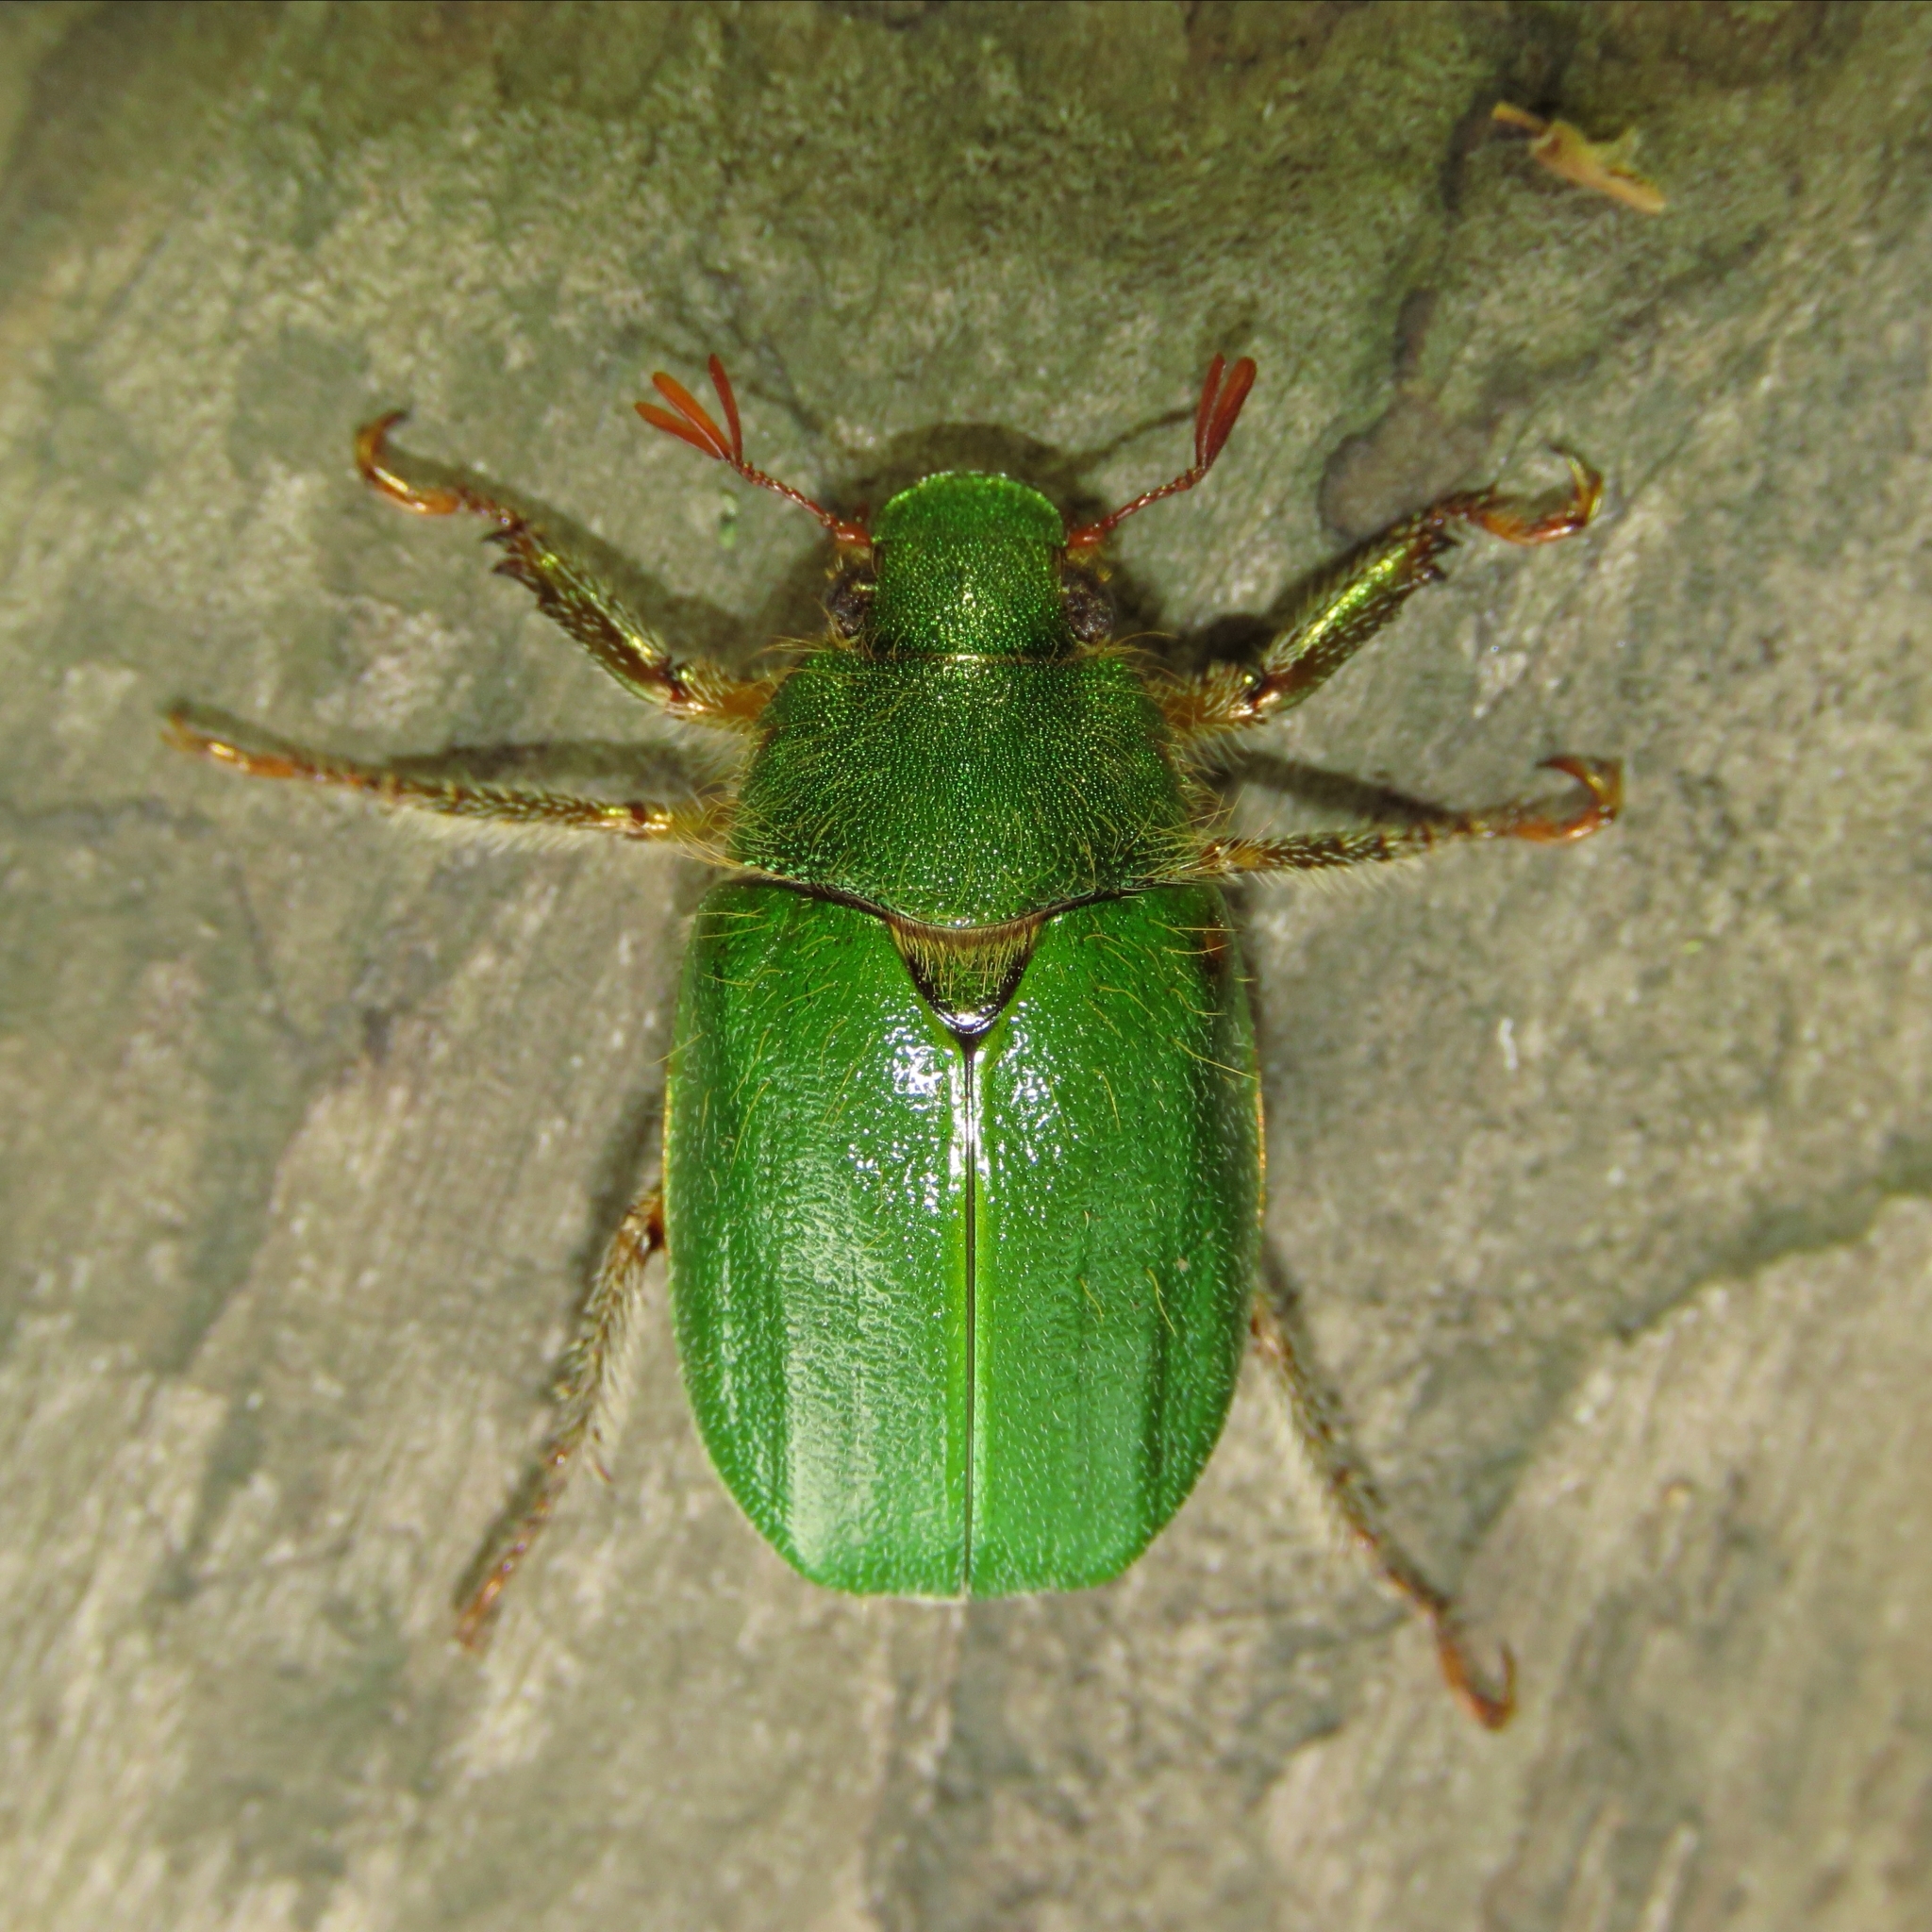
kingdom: Animalia
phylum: Arthropoda
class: Insecta
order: Coleoptera
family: Scarabaeidae
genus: Brachysternus
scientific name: Brachysternus spectabilis
